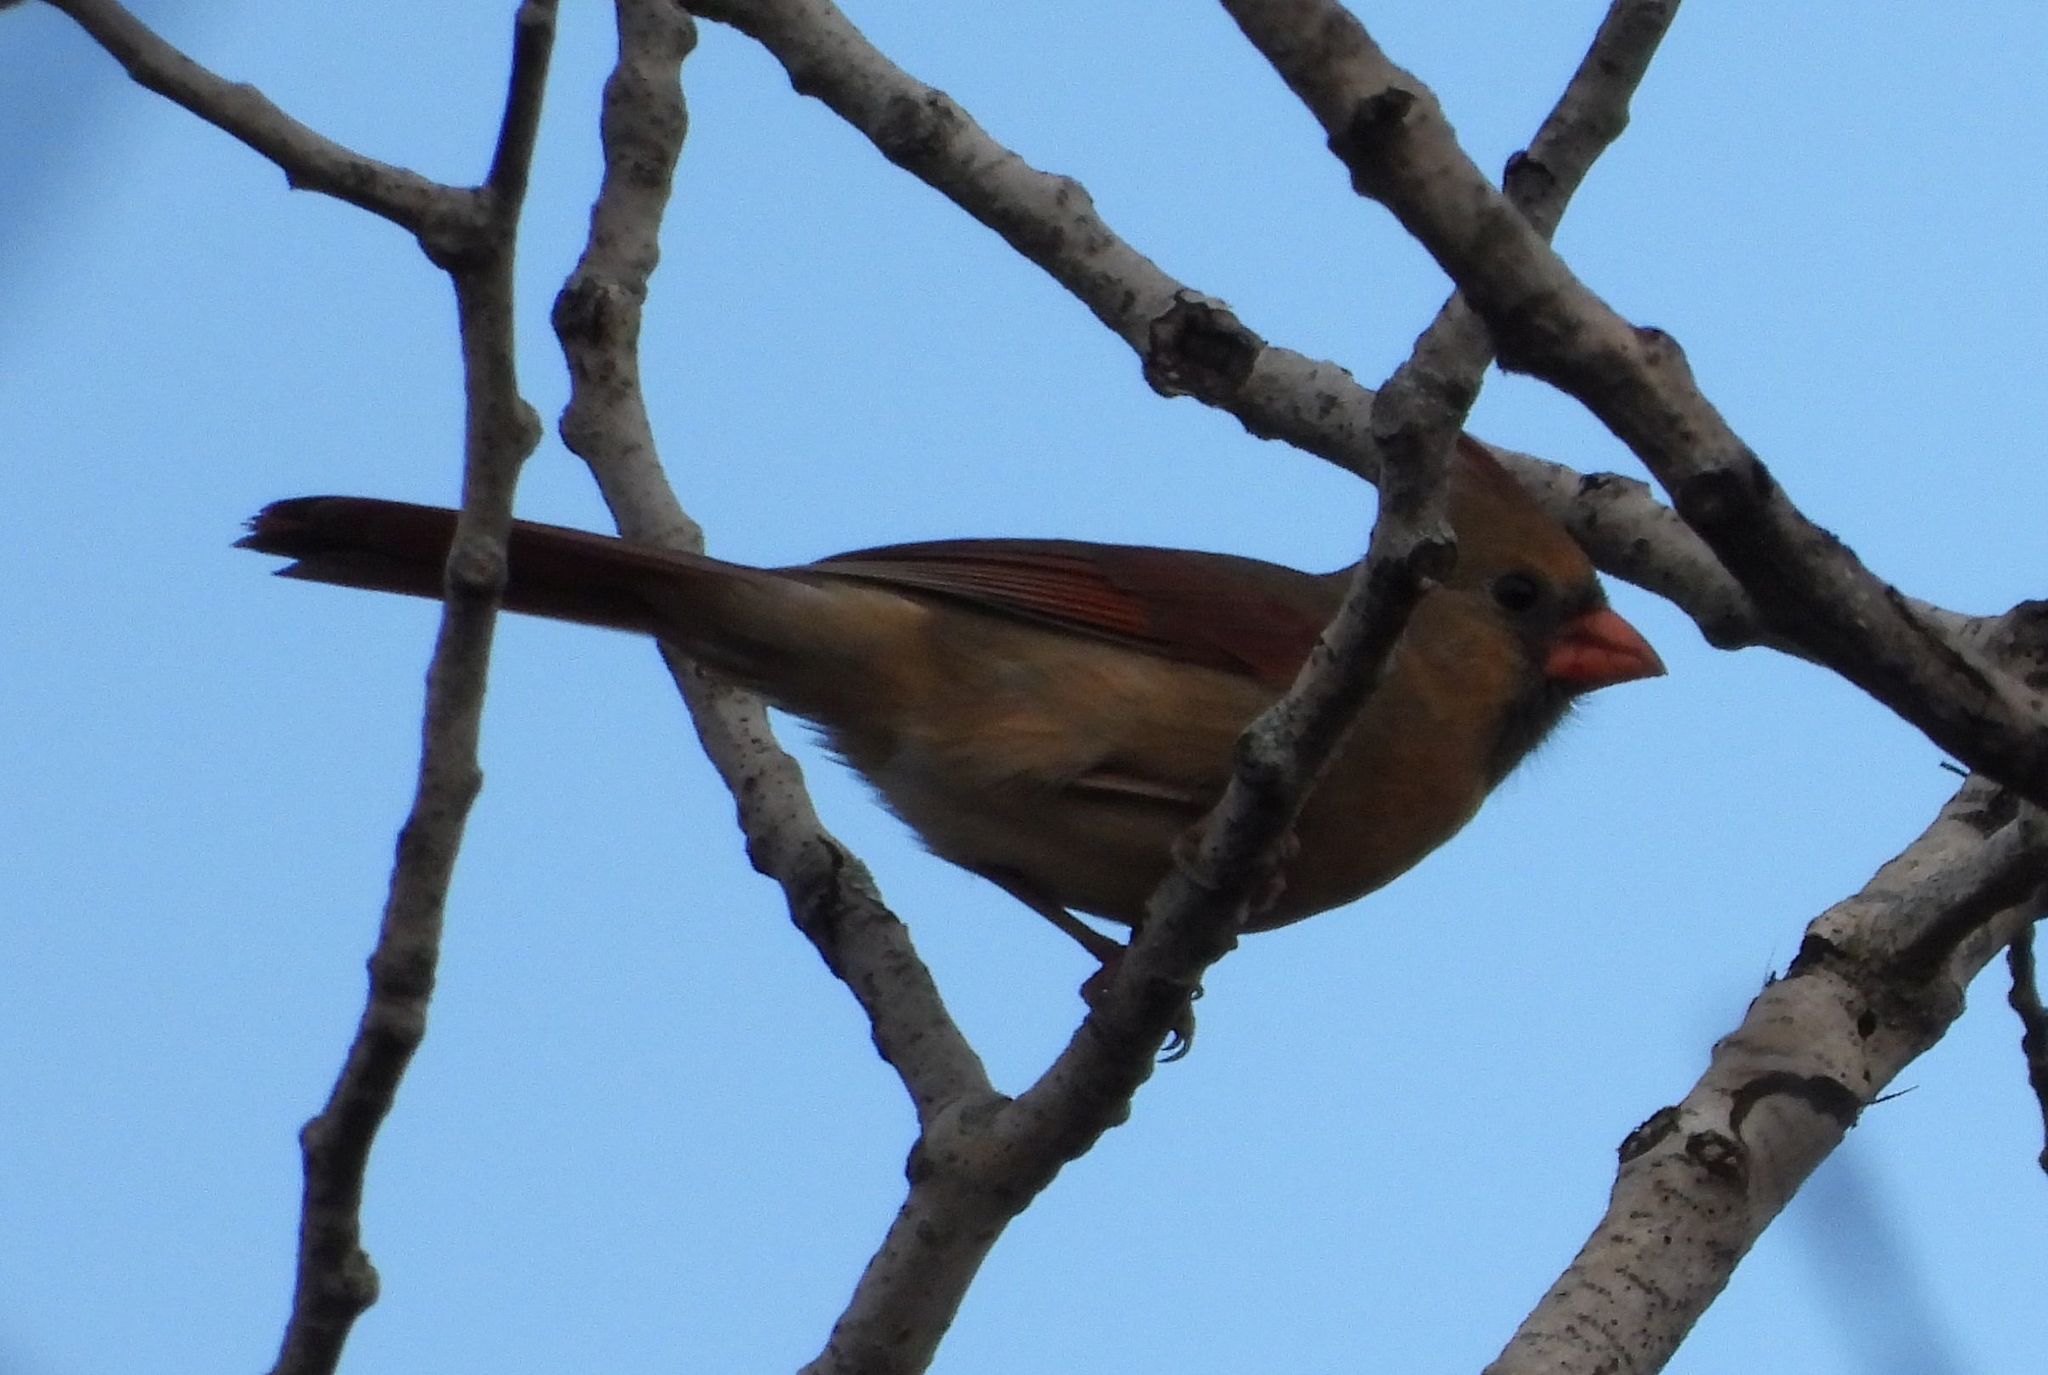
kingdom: Animalia
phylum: Chordata
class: Aves
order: Passeriformes
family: Cardinalidae
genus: Cardinalis
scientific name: Cardinalis cardinalis
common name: Northern cardinal
